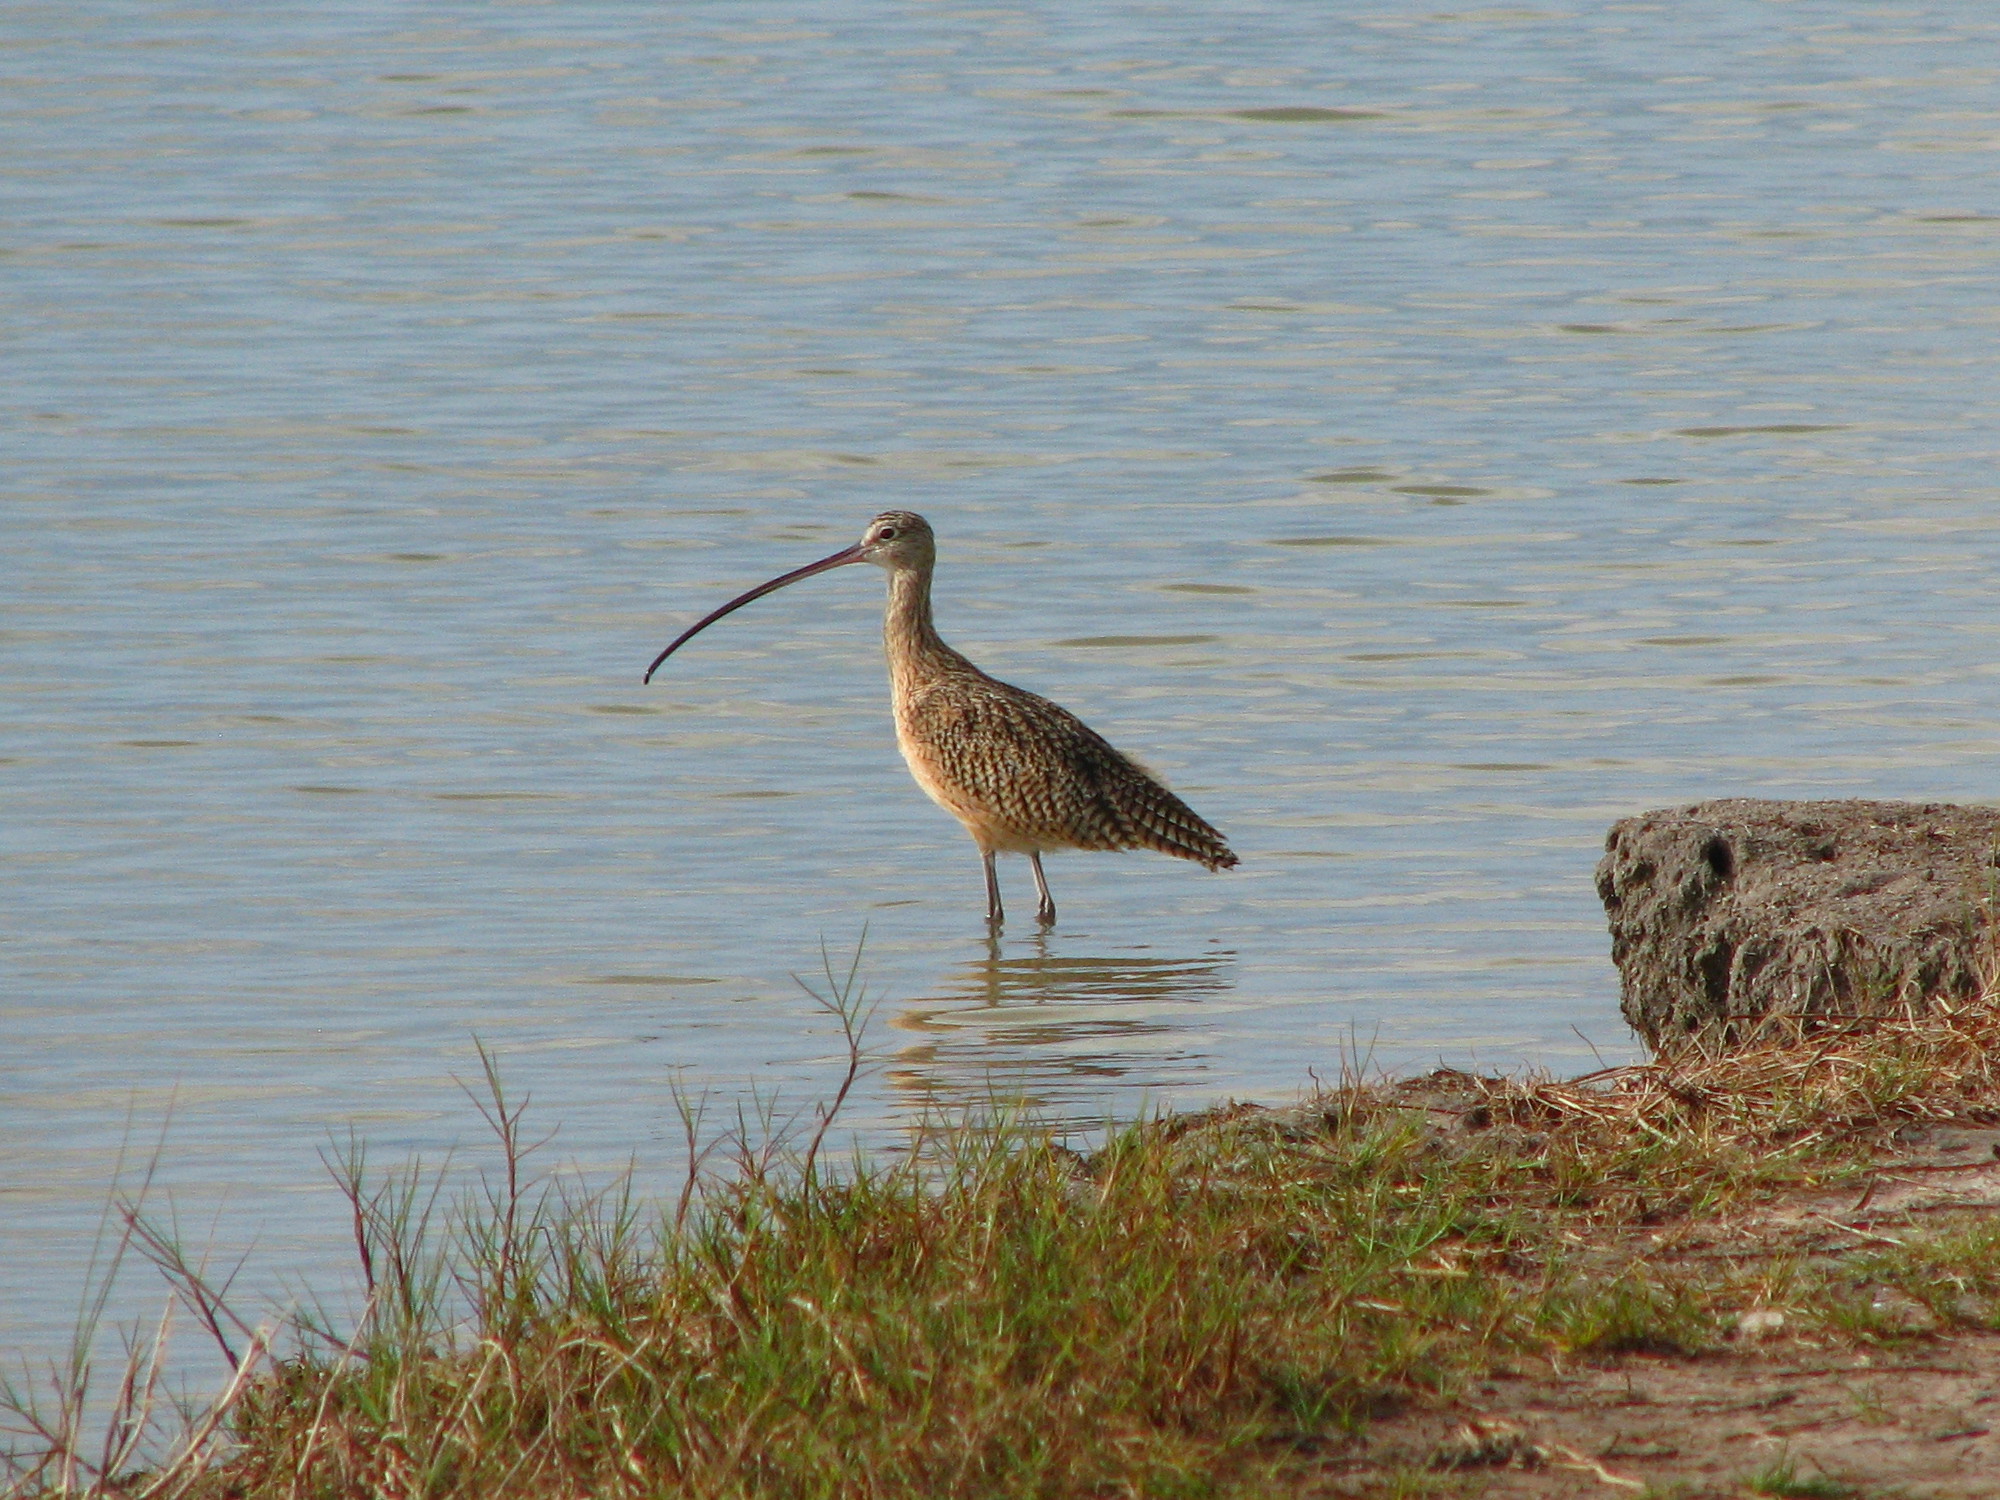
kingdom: Animalia
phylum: Chordata
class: Aves
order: Charadriiformes
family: Scolopacidae
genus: Numenius
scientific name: Numenius americanus
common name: Long-billed curlew
